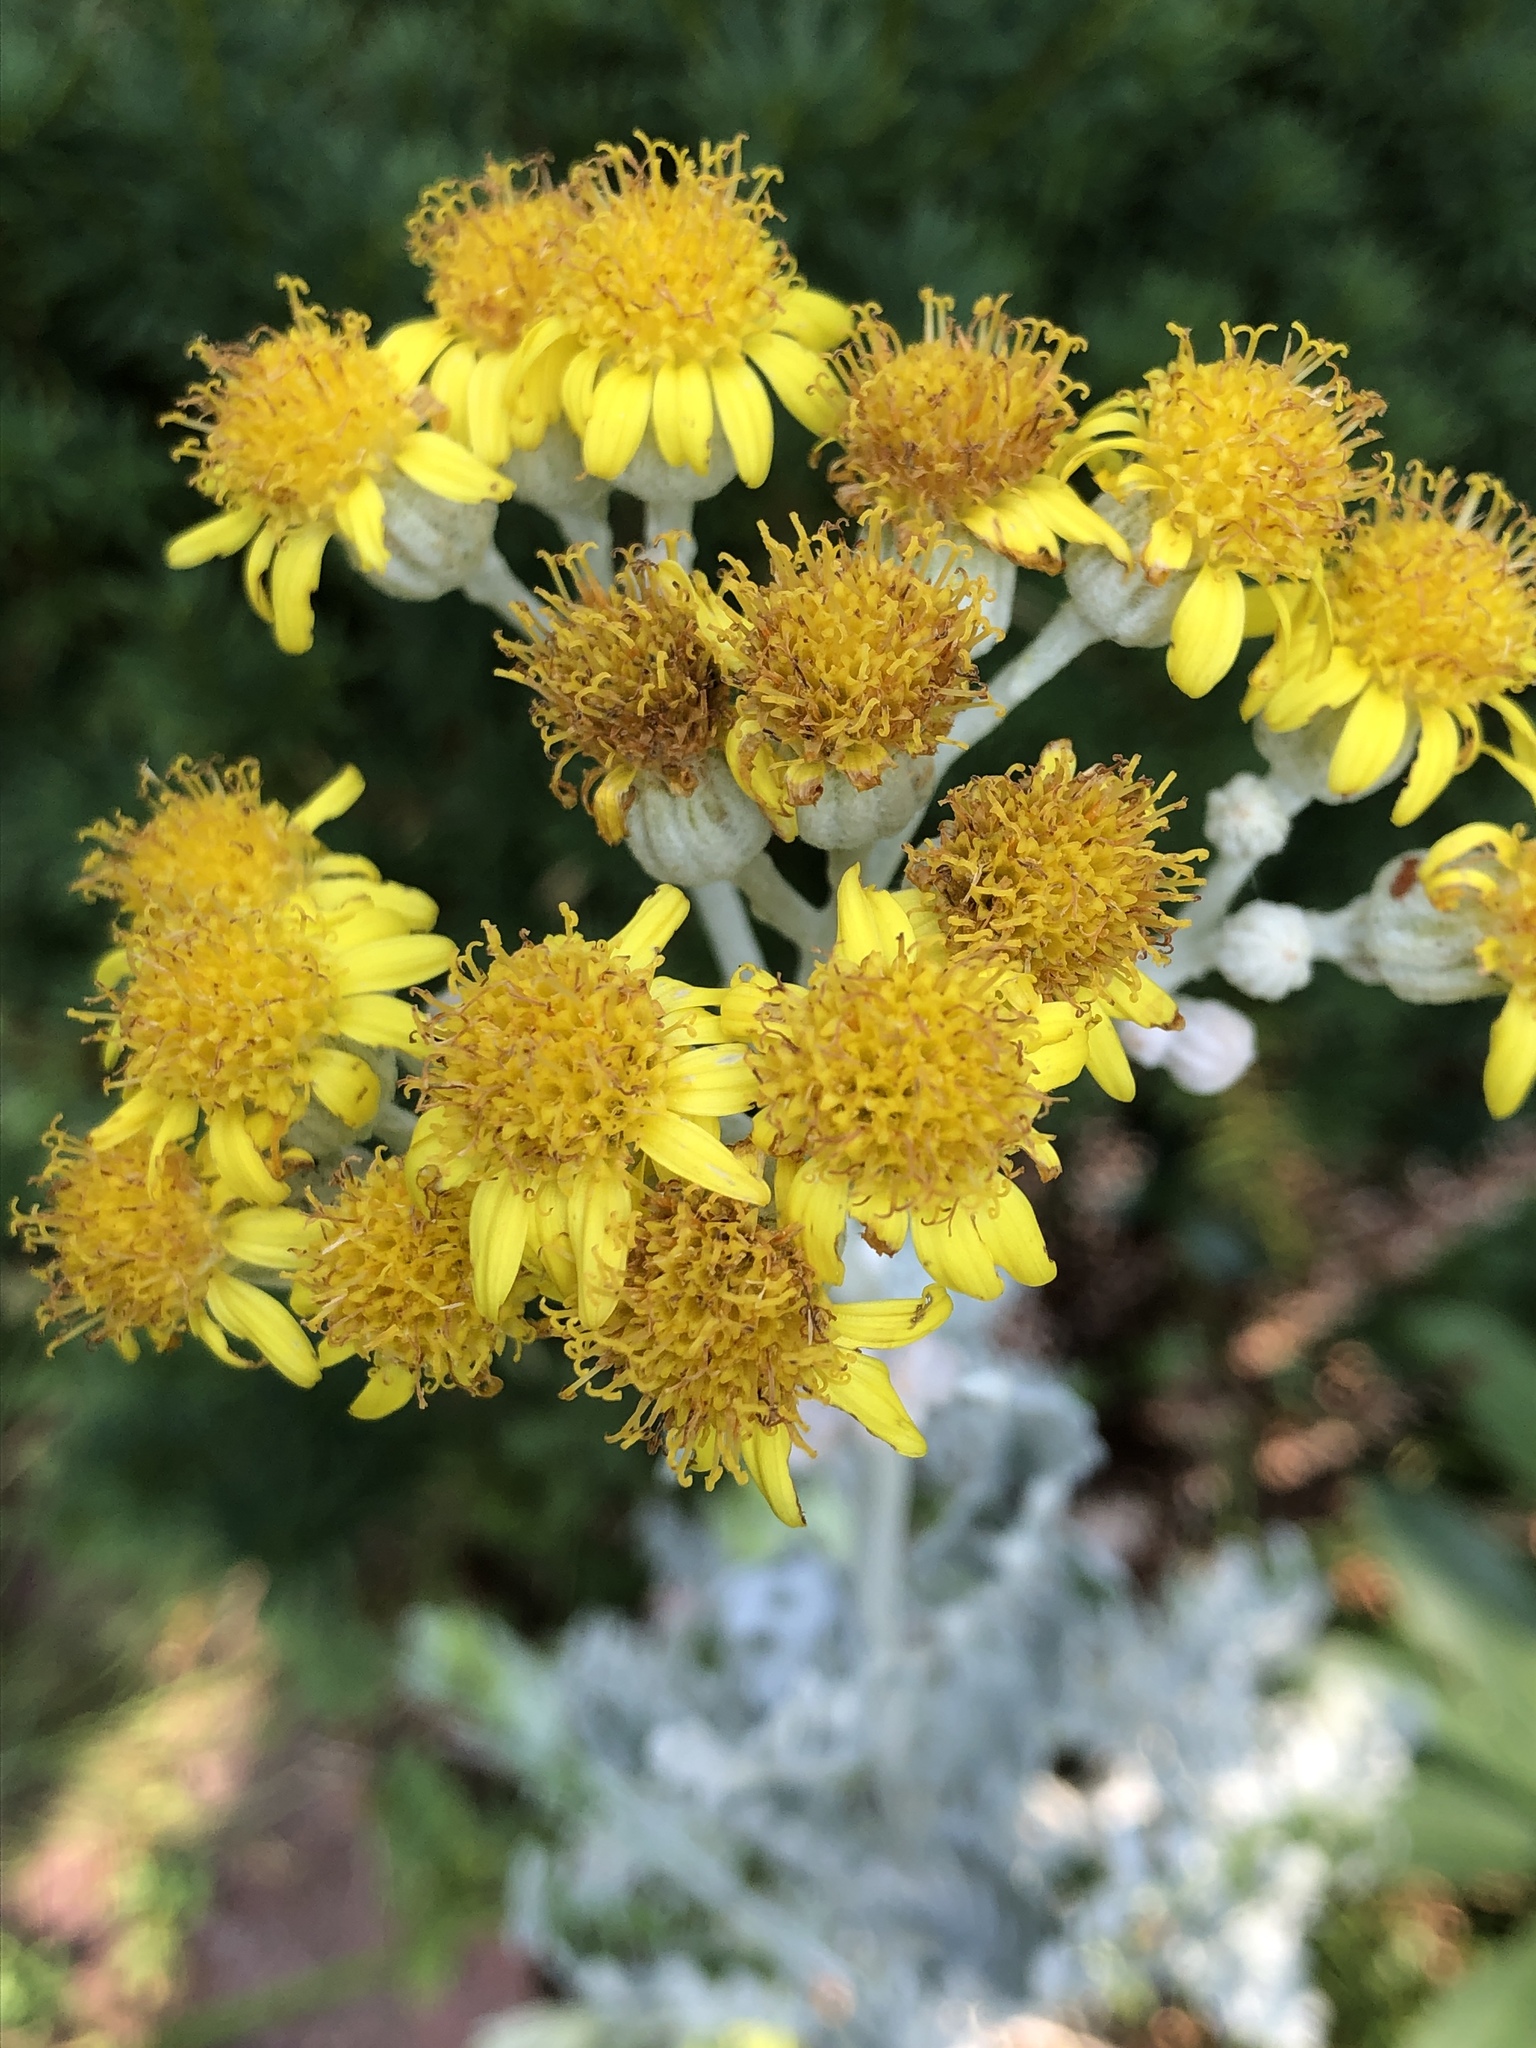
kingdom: Plantae
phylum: Tracheophyta
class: Magnoliopsida
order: Asterales
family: Asteraceae
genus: Jacobaea
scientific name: Jacobaea maritima
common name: Silver ragwort
